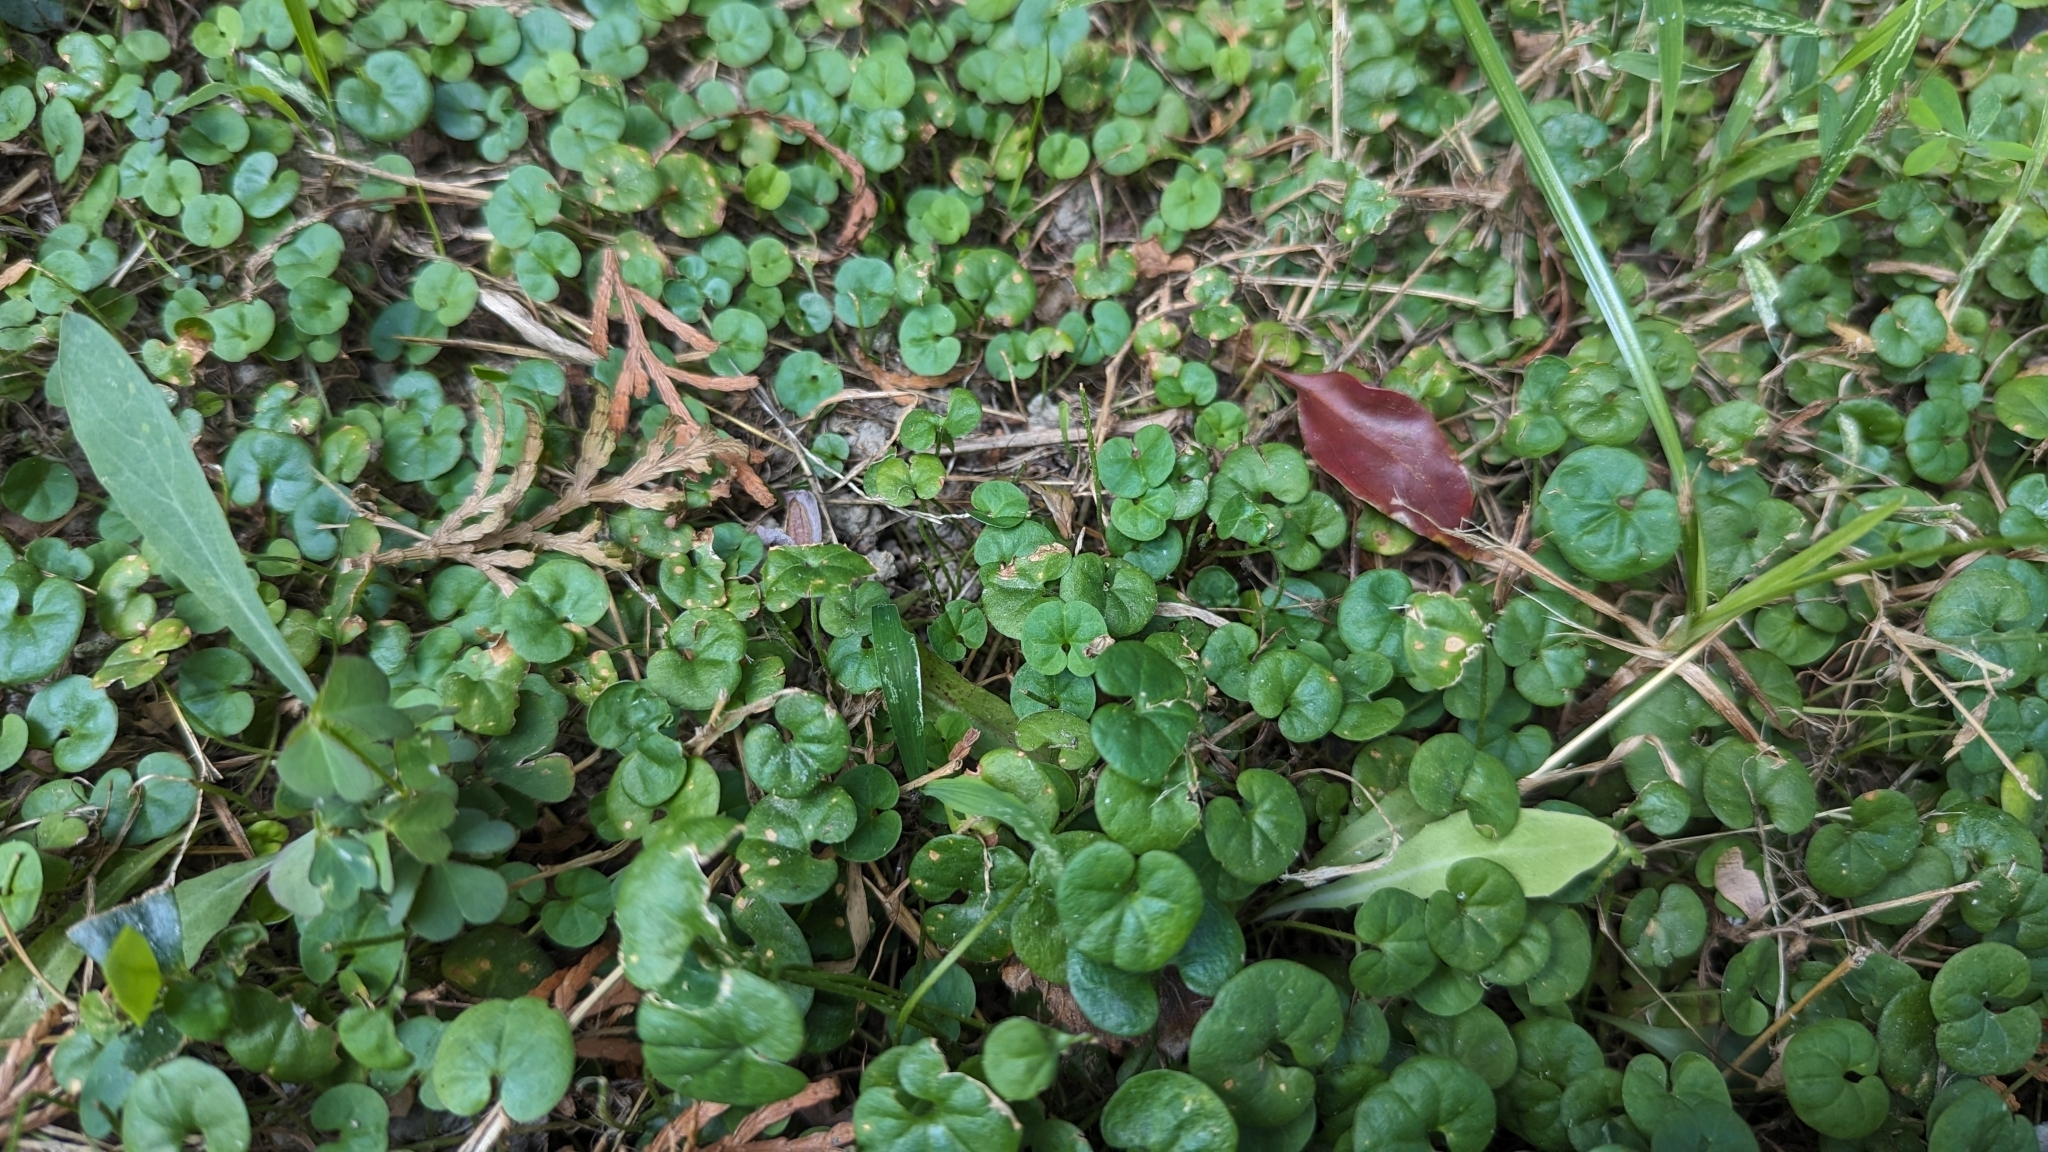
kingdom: Plantae
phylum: Tracheophyta
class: Magnoliopsida
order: Solanales
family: Convolvulaceae
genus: Dichondra
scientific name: Dichondra micrantha
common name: Kidneyweed
